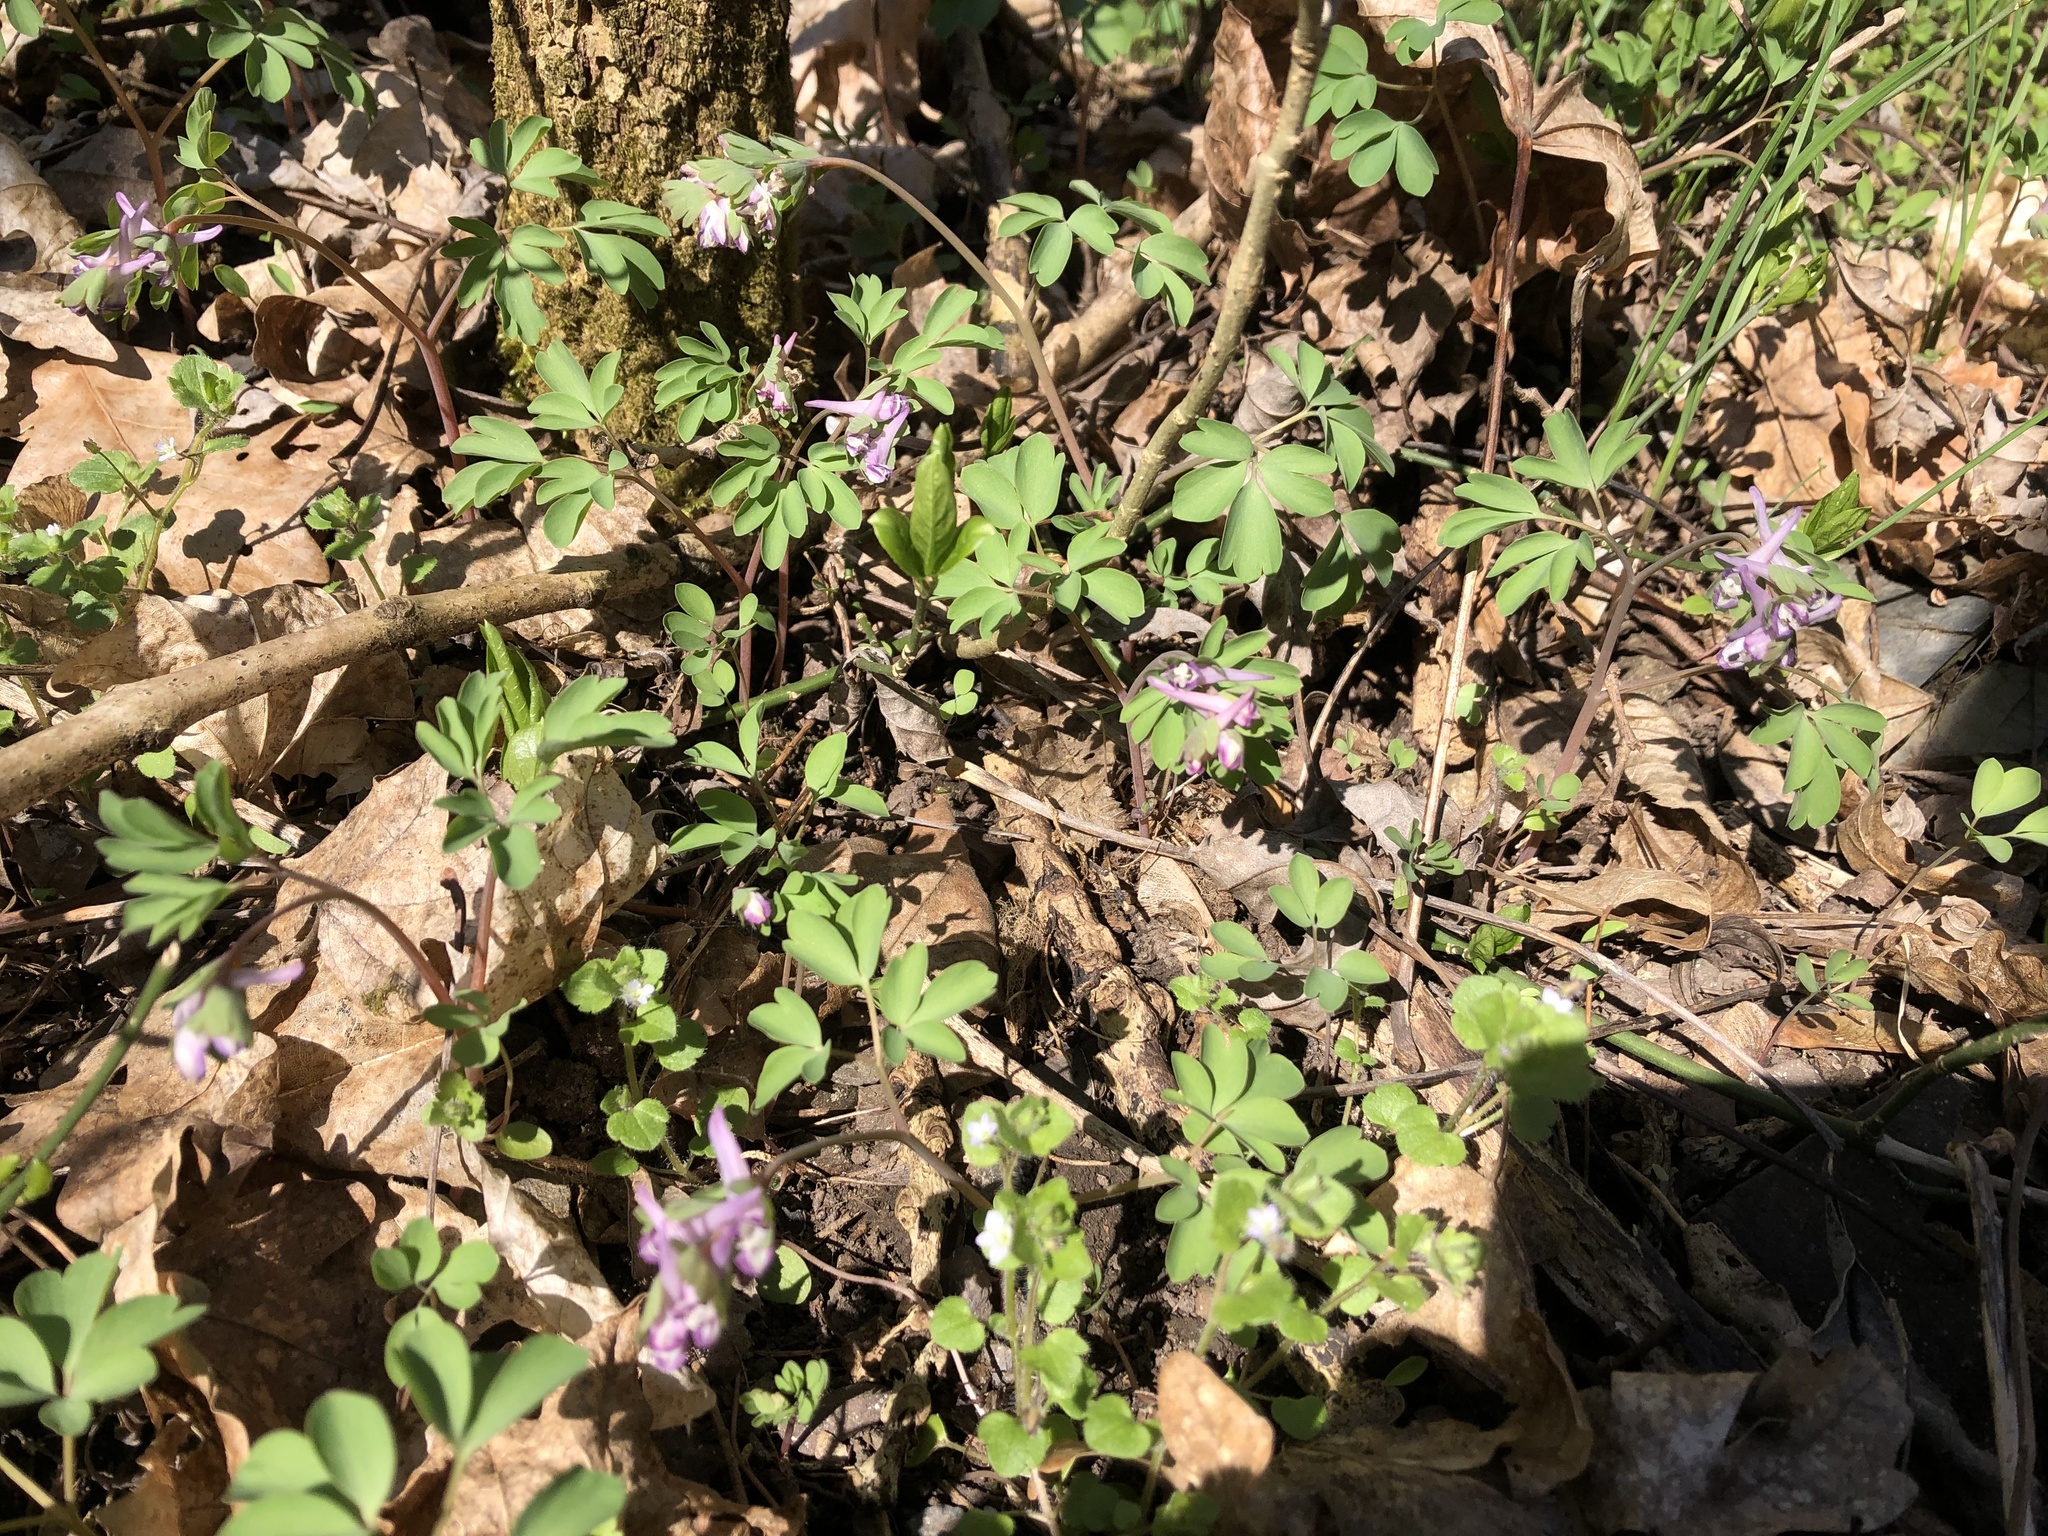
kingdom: Plantae
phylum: Tracheophyta
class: Magnoliopsida
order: Ranunculales
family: Papaveraceae
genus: Corydalis
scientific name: Corydalis pumila
